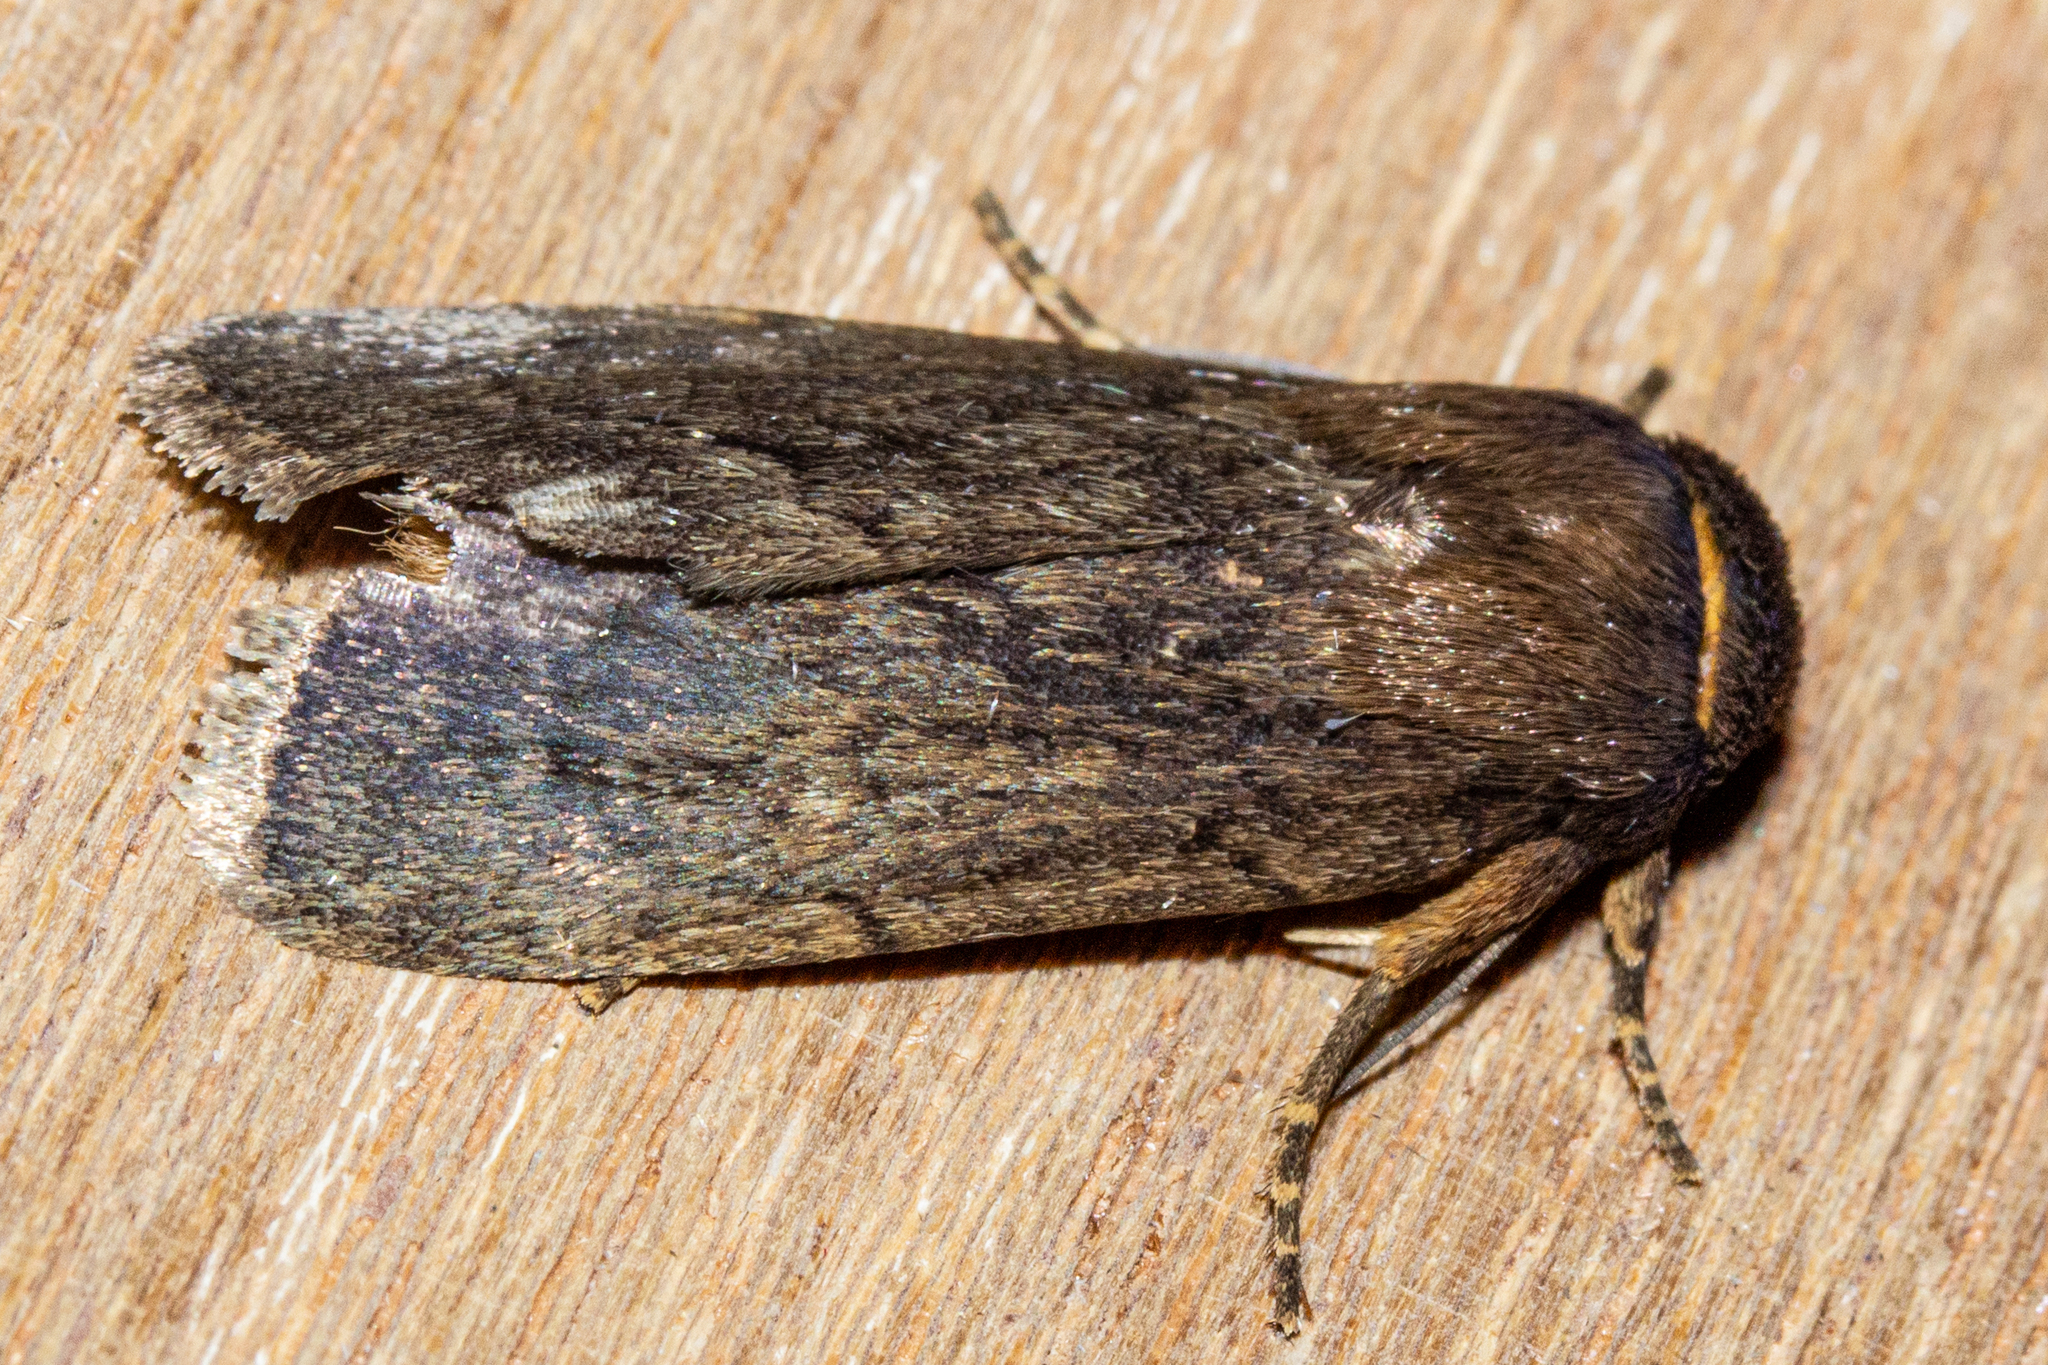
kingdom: Animalia
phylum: Arthropoda
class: Insecta
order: Lepidoptera
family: Noctuidae
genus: Bityla
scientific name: Bityla defigurata
